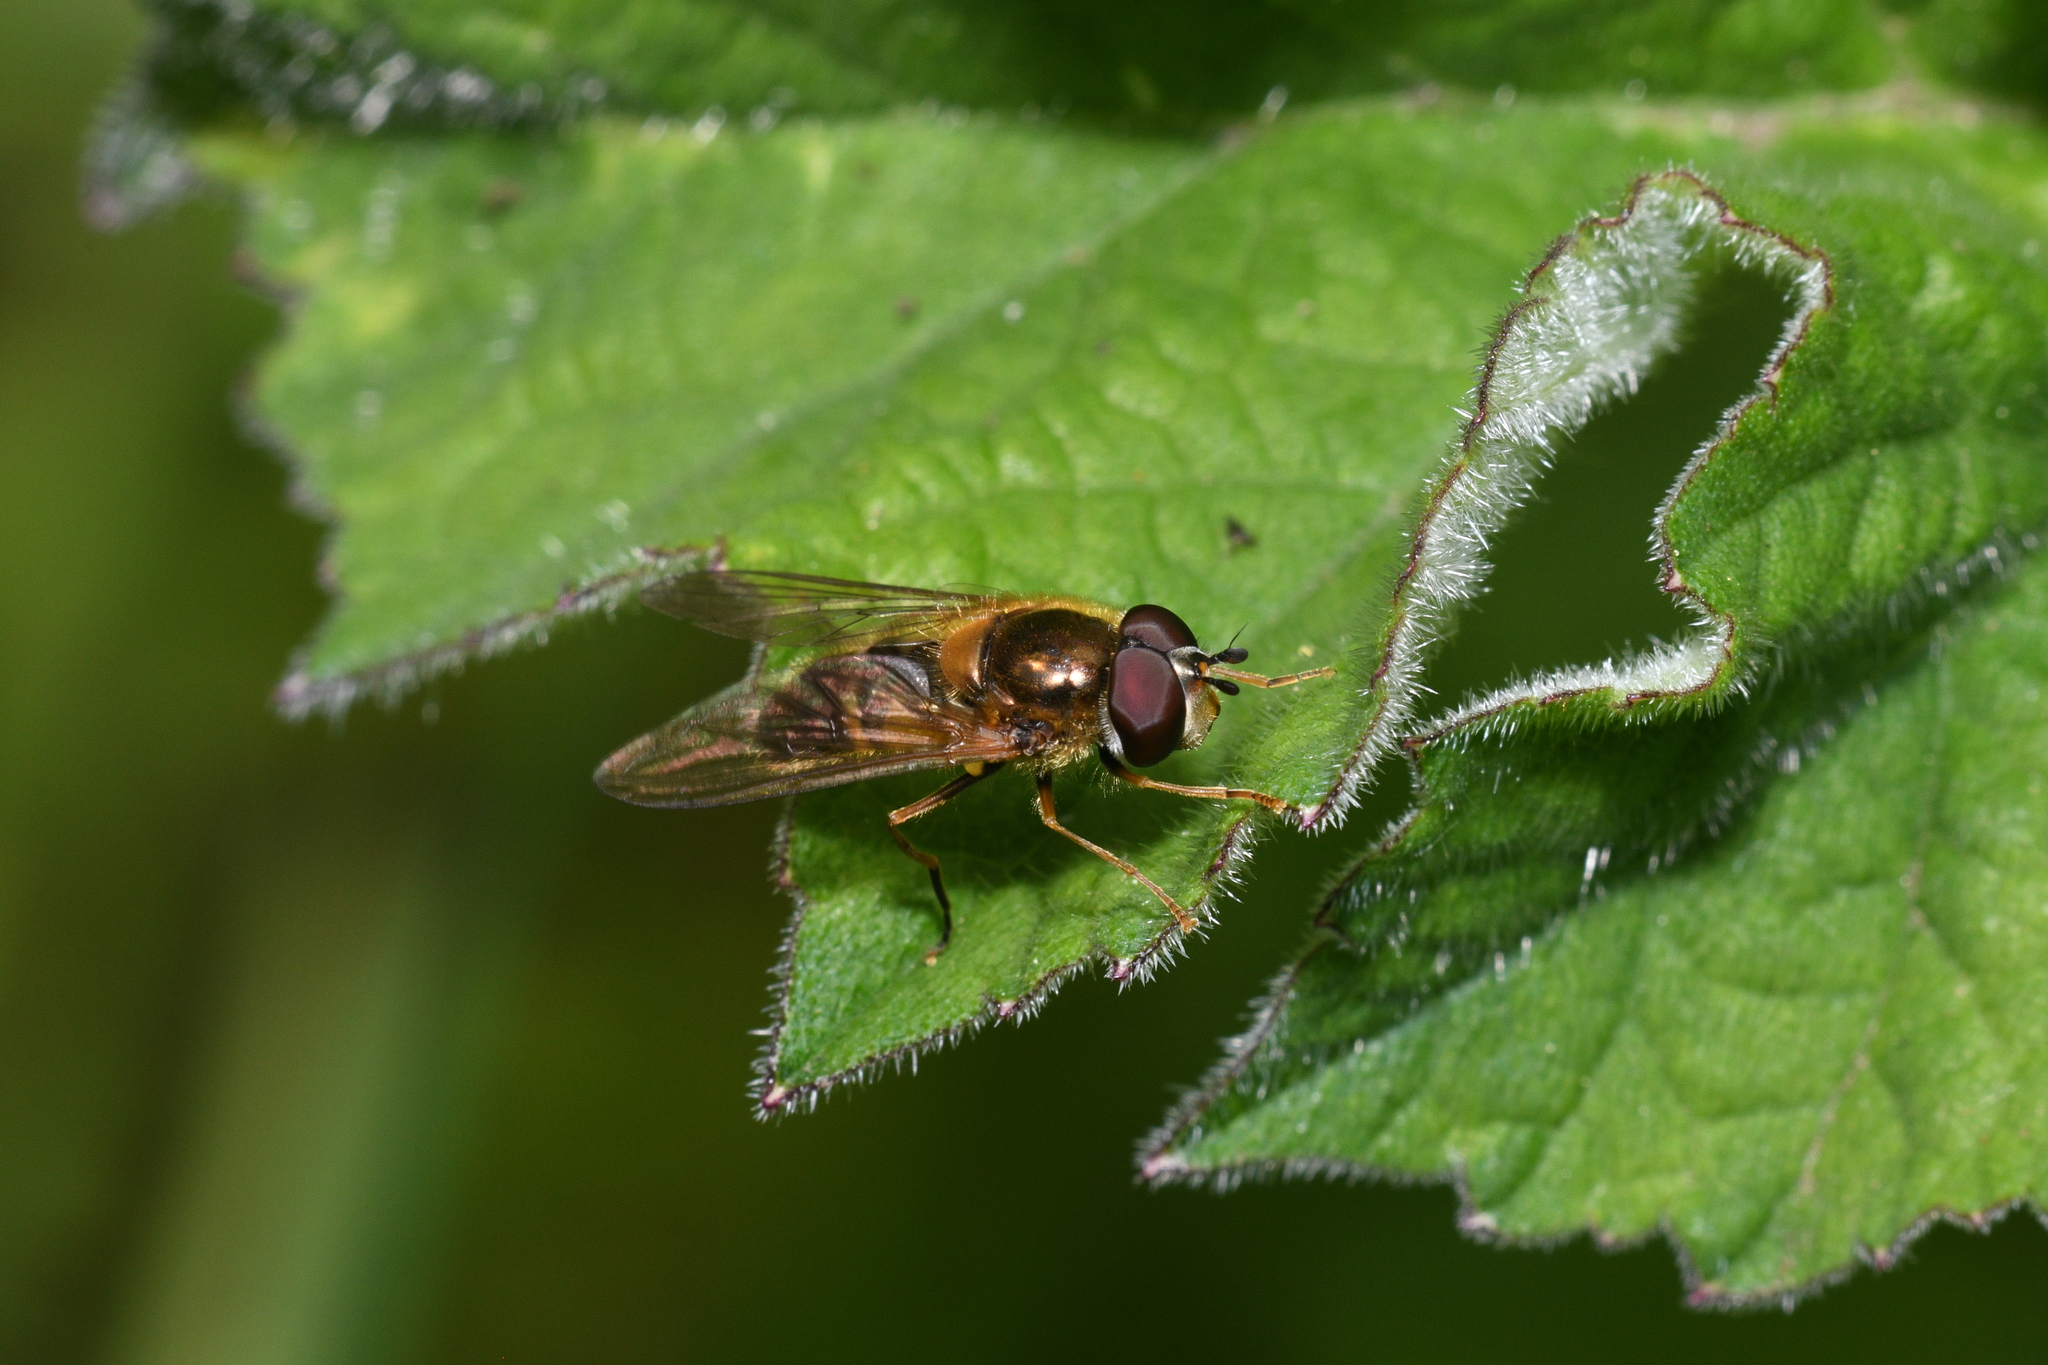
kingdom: Animalia
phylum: Arthropoda
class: Insecta
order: Diptera
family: Syrphidae
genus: Epistrophe
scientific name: Epistrophe eligans
